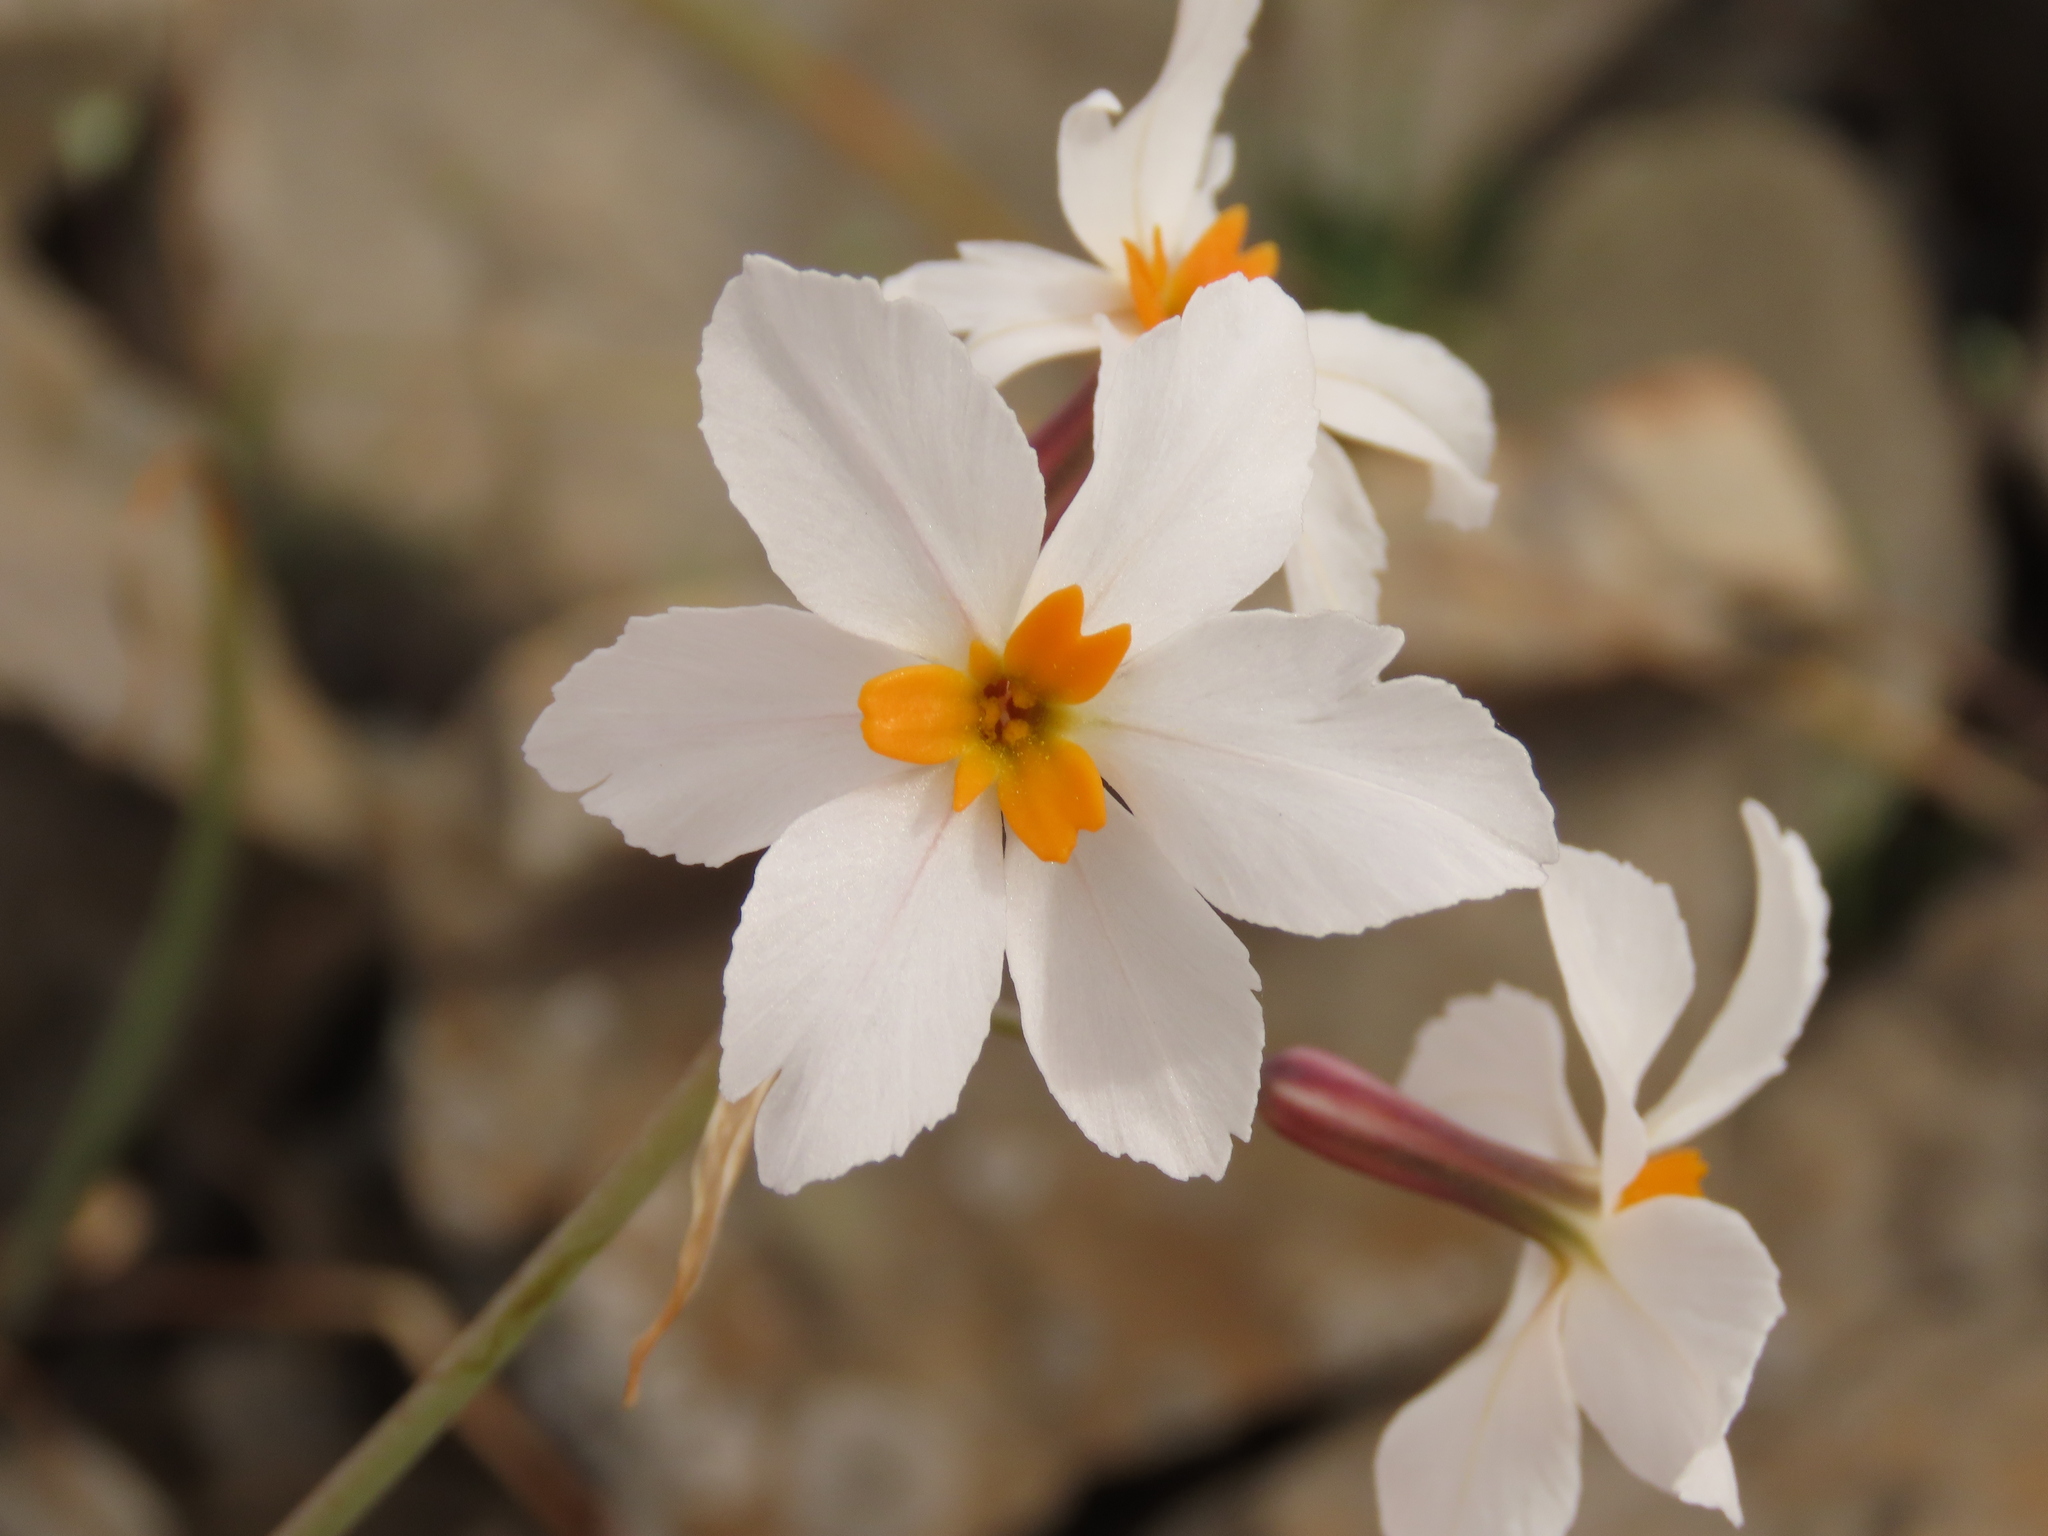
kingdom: Plantae
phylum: Tracheophyta
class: Liliopsida
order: Asparagales
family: Amaryllidaceae
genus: Leucocoryne
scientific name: Leucocoryne coronata
